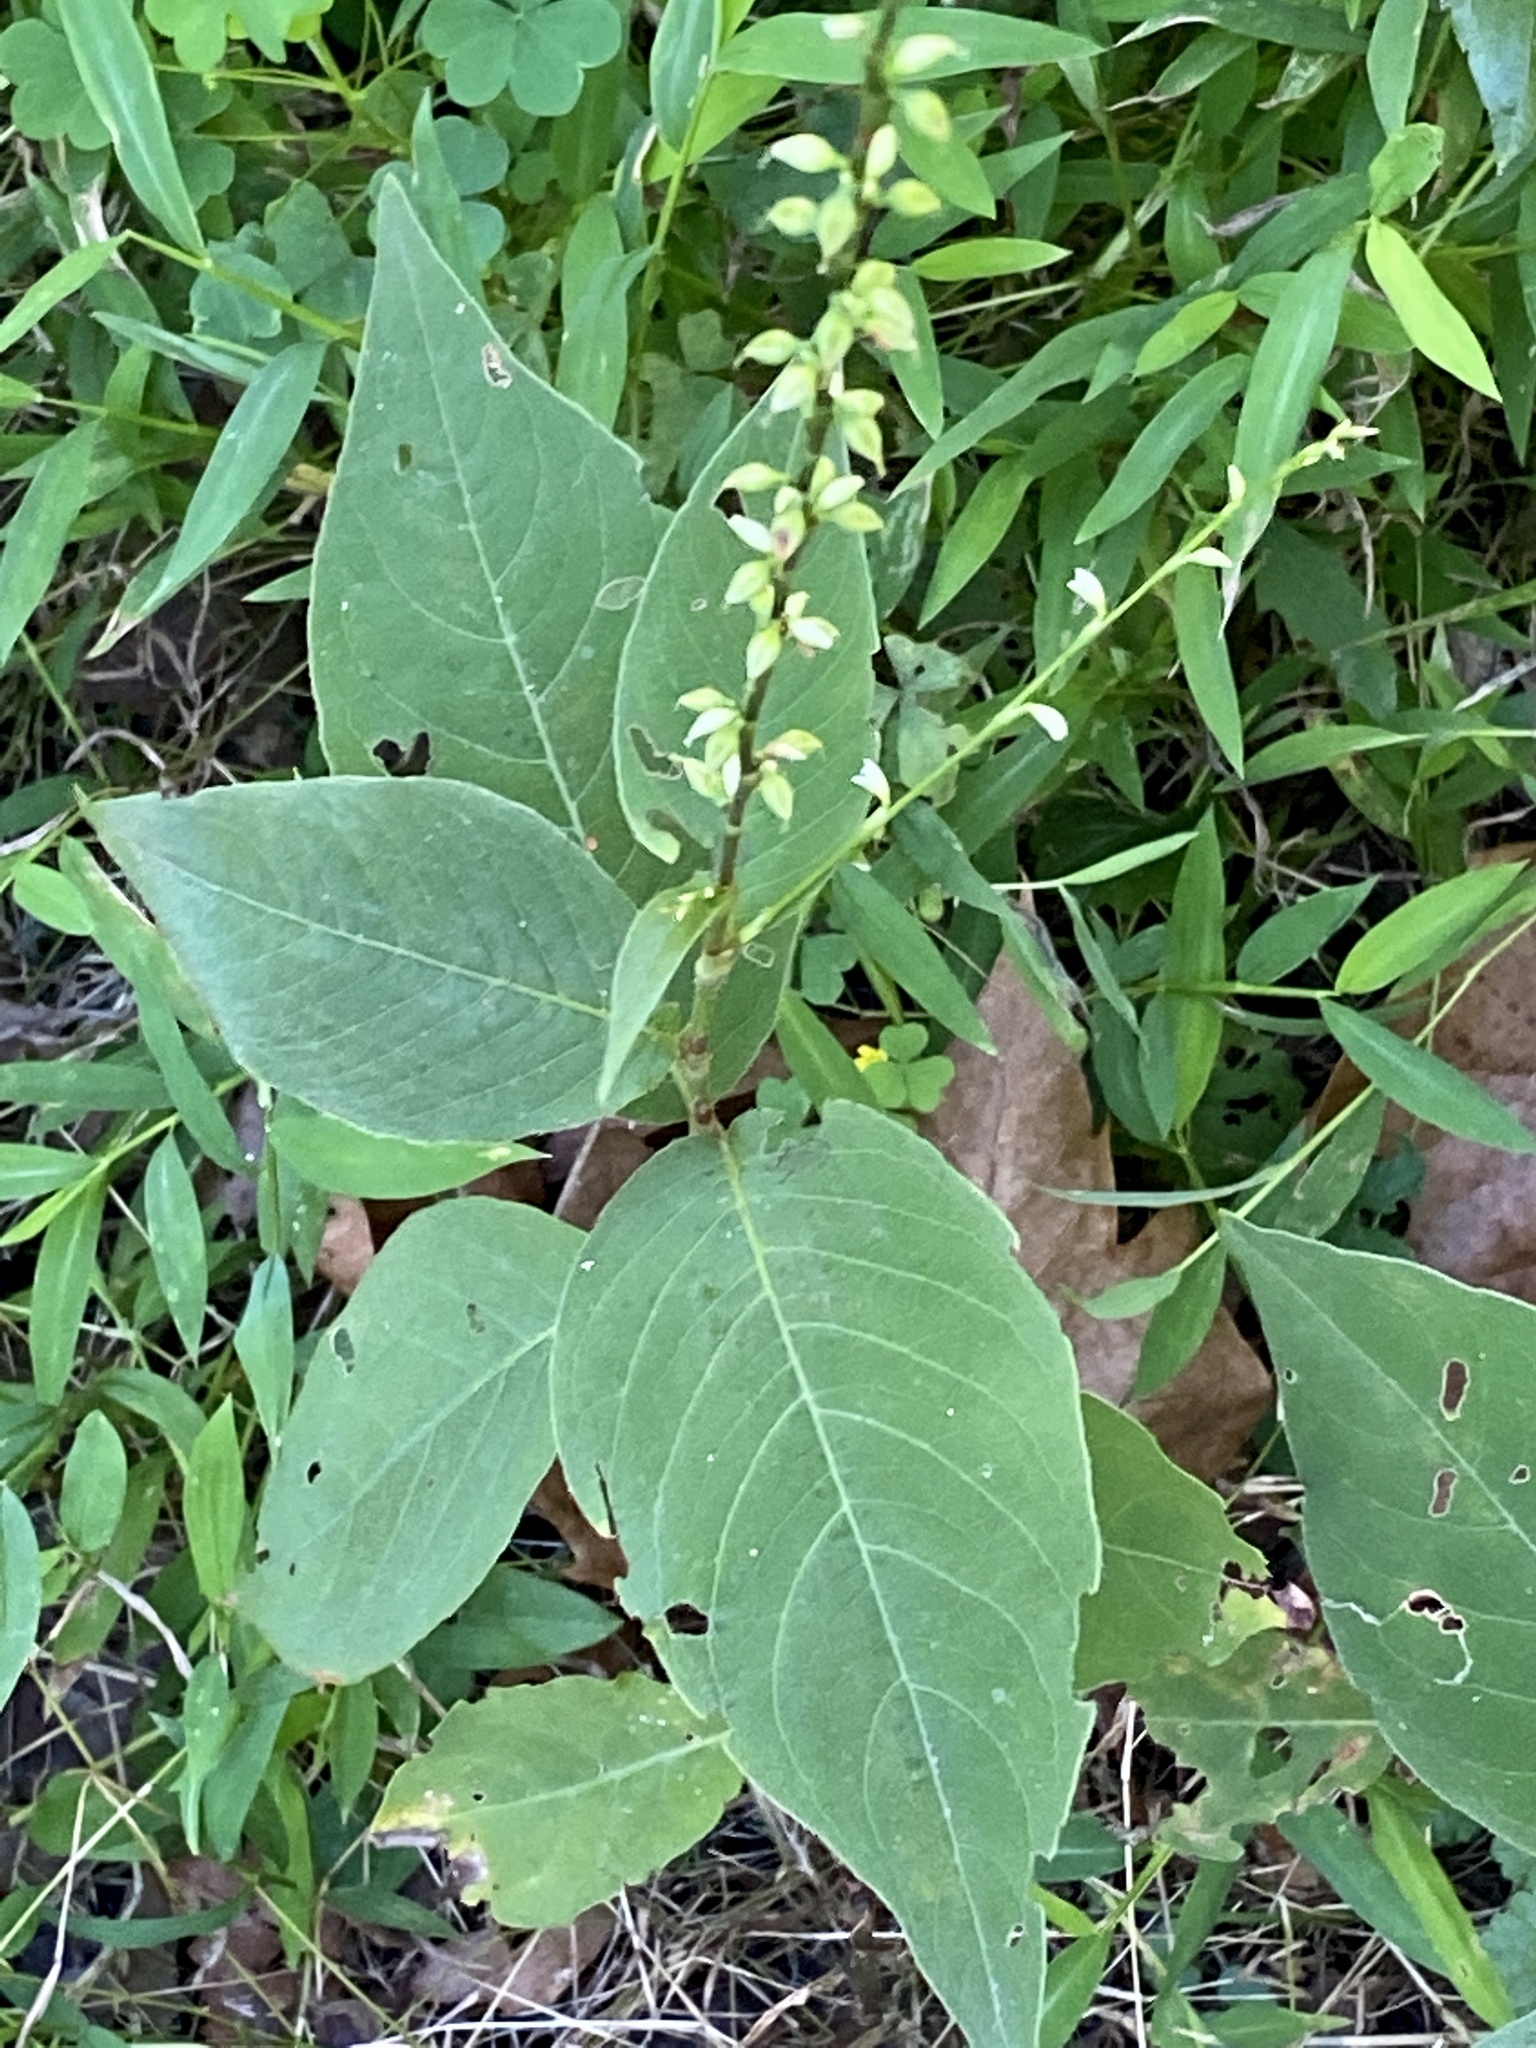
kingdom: Plantae
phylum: Tracheophyta
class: Magnoliopsida
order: Caryophyllales
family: Polygonaceae
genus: Persicaria
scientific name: Persicaria virginiana
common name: Jumpseed
